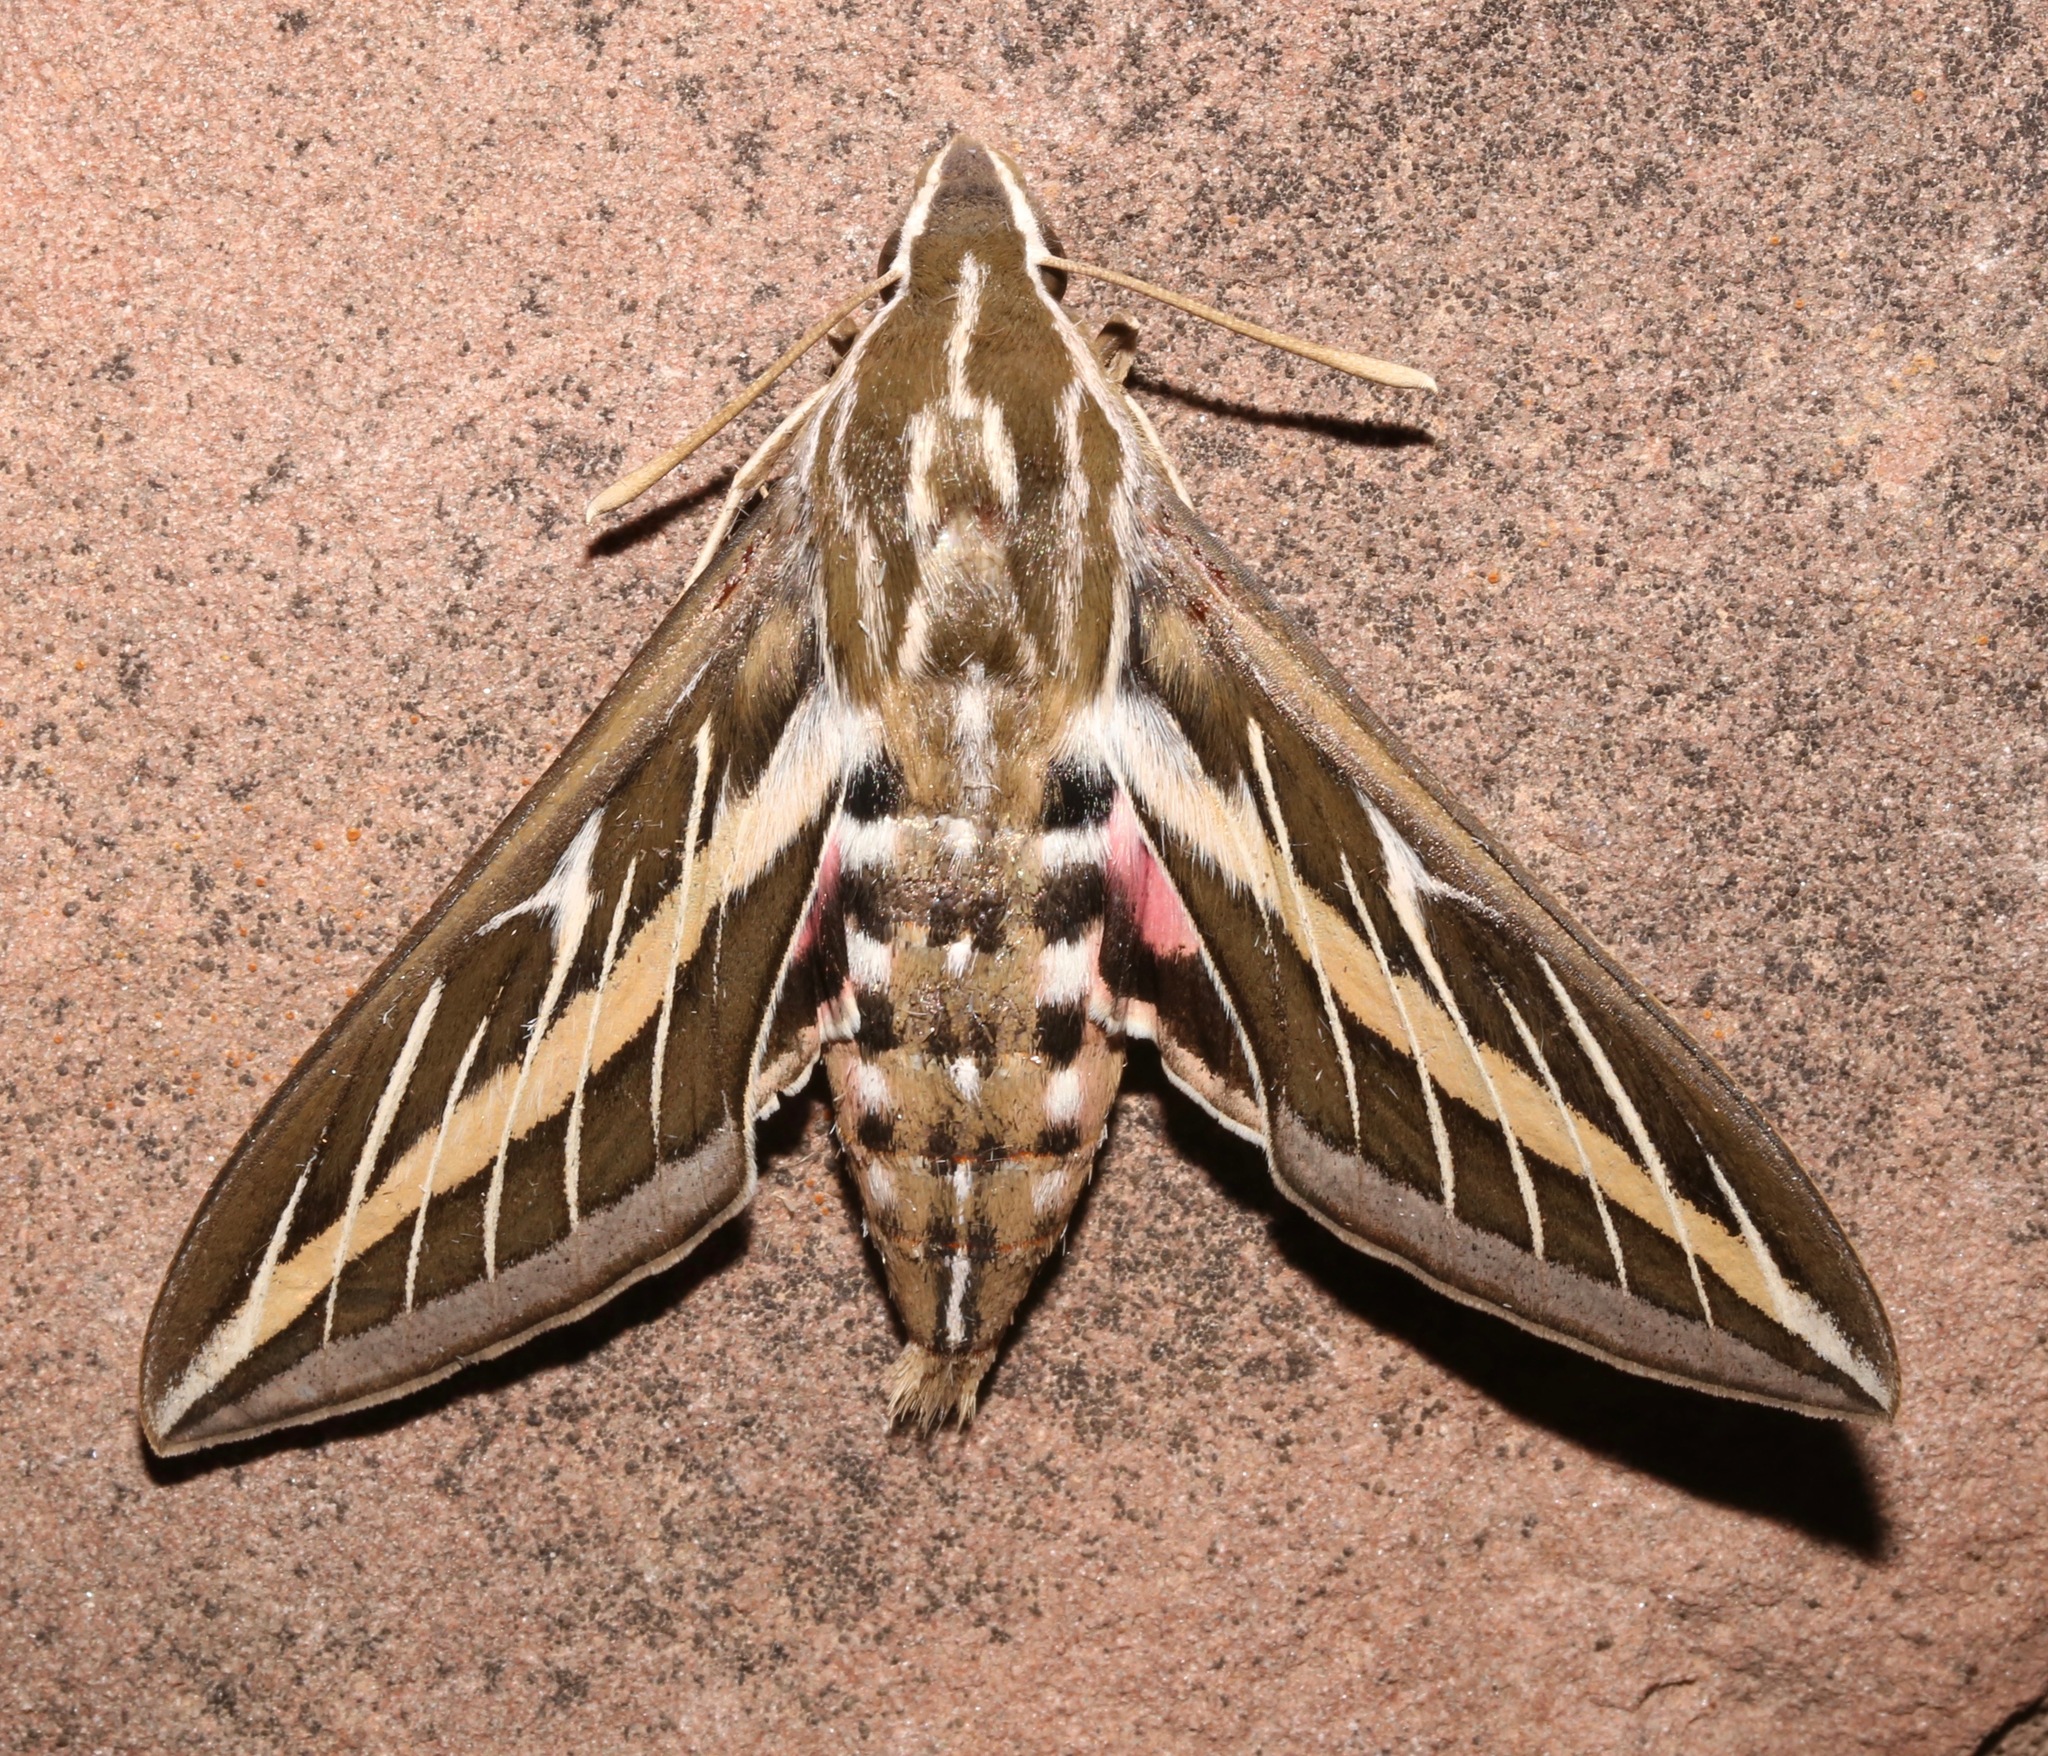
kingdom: Animalia
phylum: Arthropoda
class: Insecta
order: Lepidoptera
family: Sphingidae
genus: Hyles
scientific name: Hyles lineata
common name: White-lined sphinx
